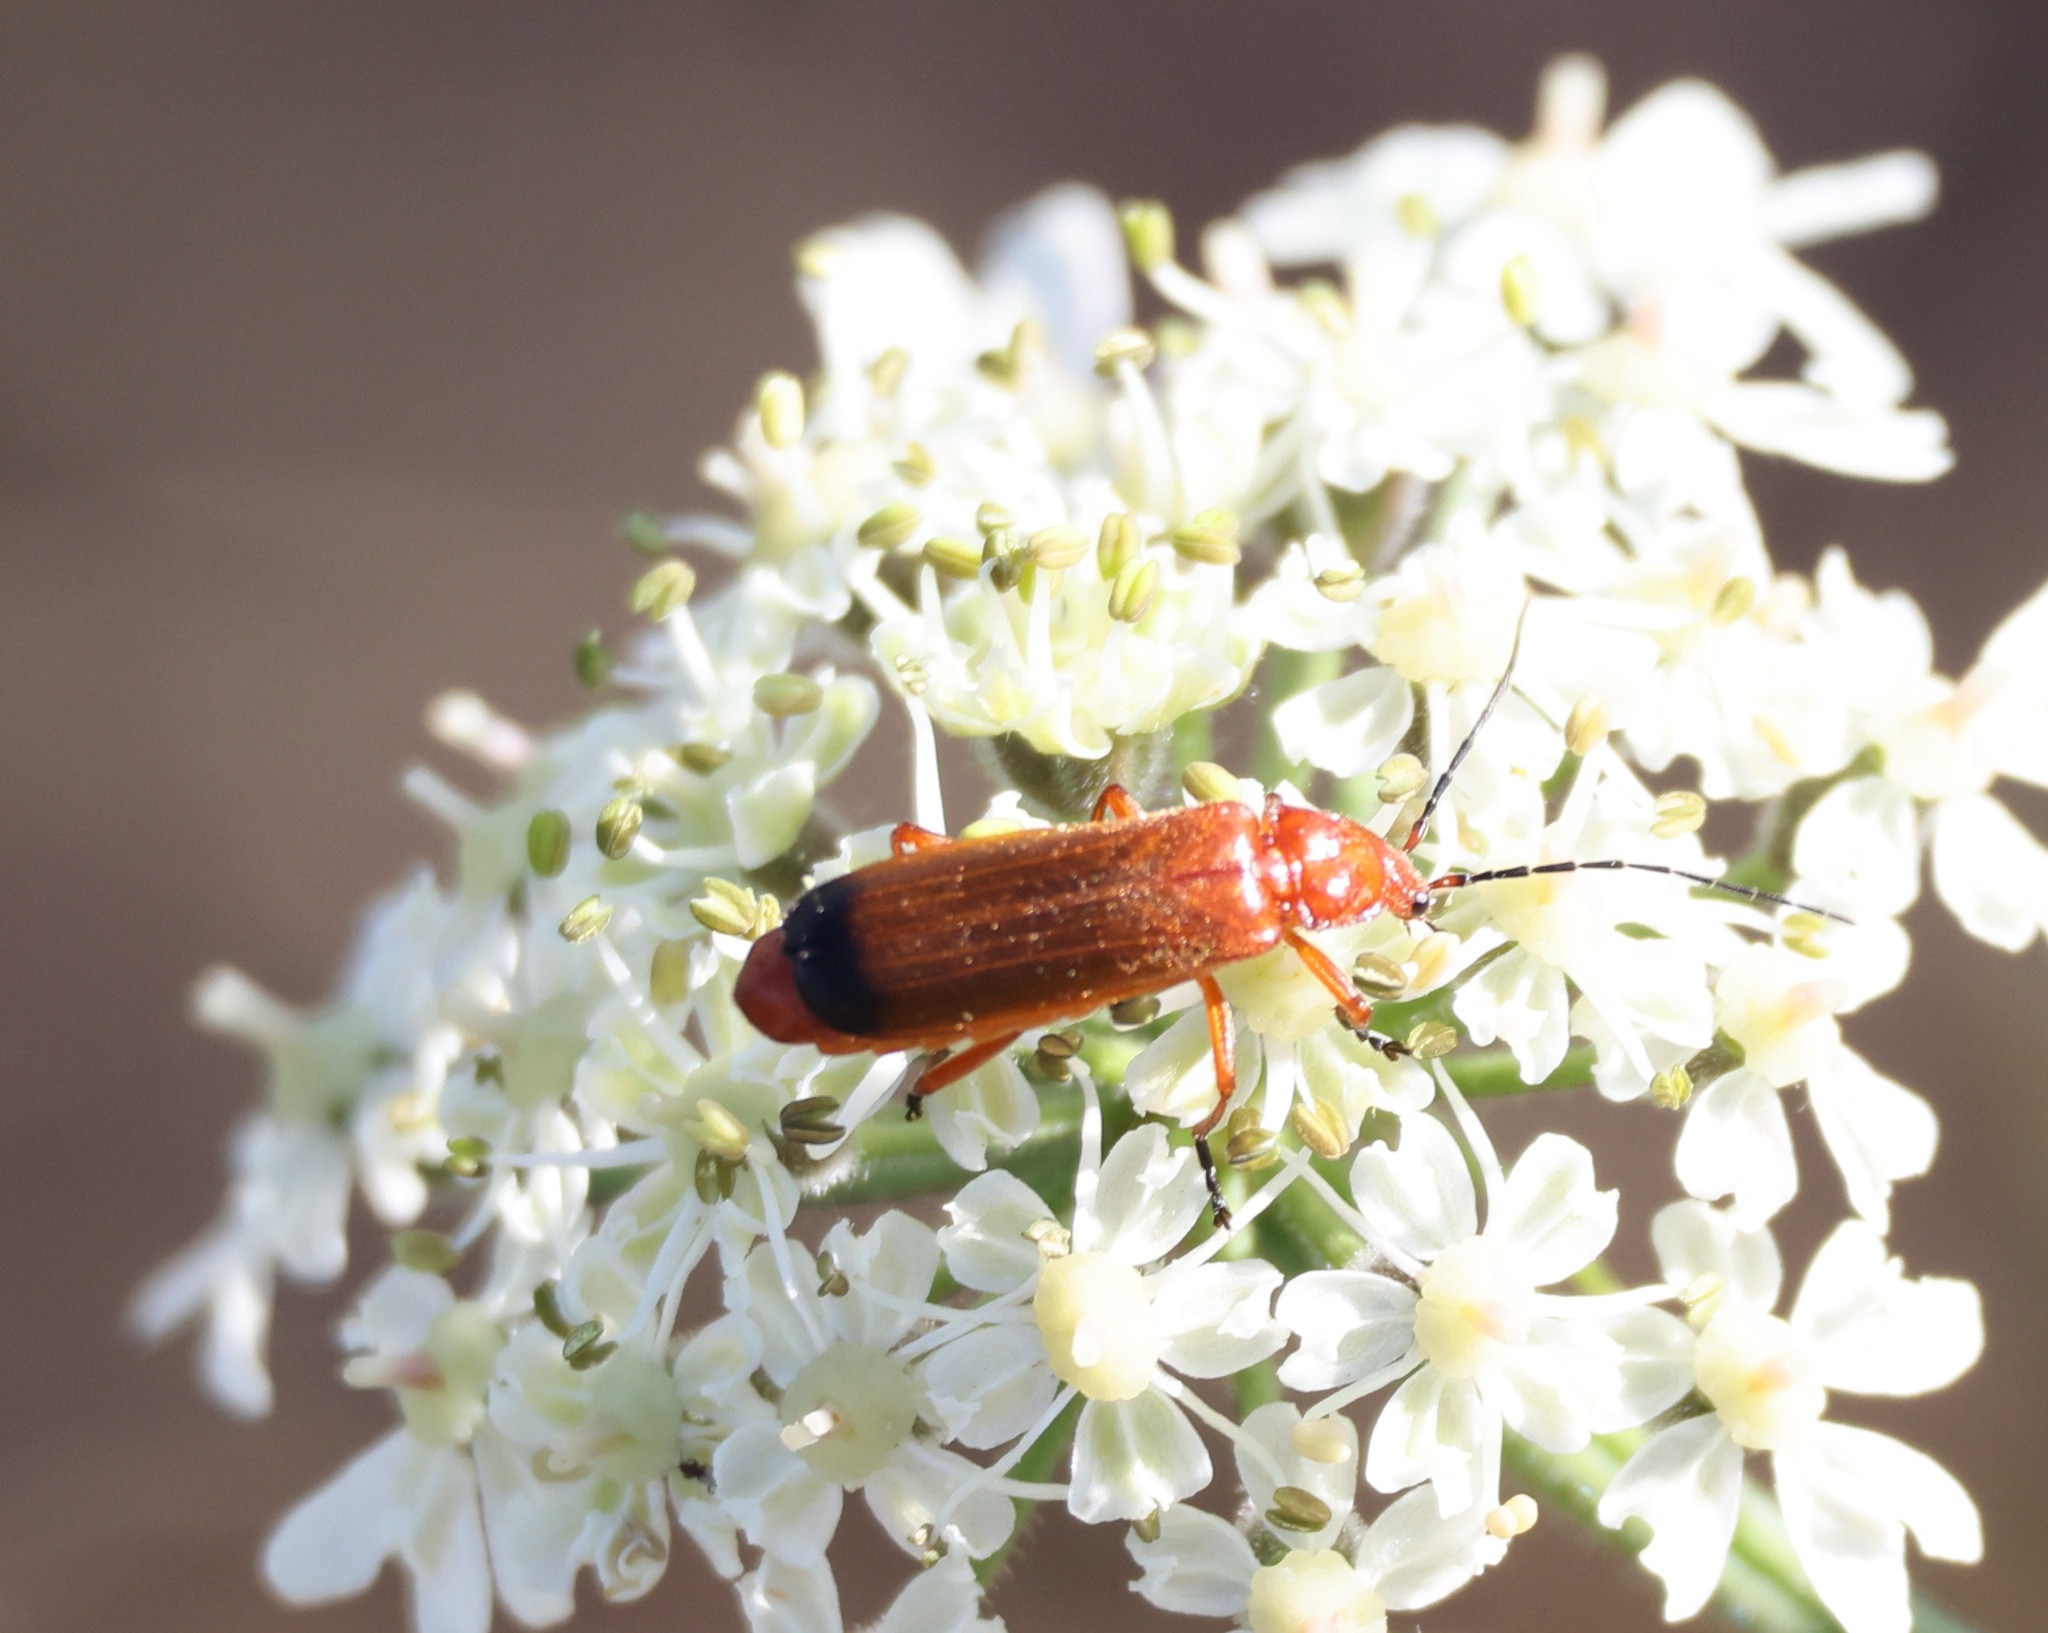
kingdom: Animalia
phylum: Arthropoda
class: Insecta
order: Coleoptera
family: Cantharidae
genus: Rhagonycha
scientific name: Rhagonycha fulva
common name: Common red soldier beetle
